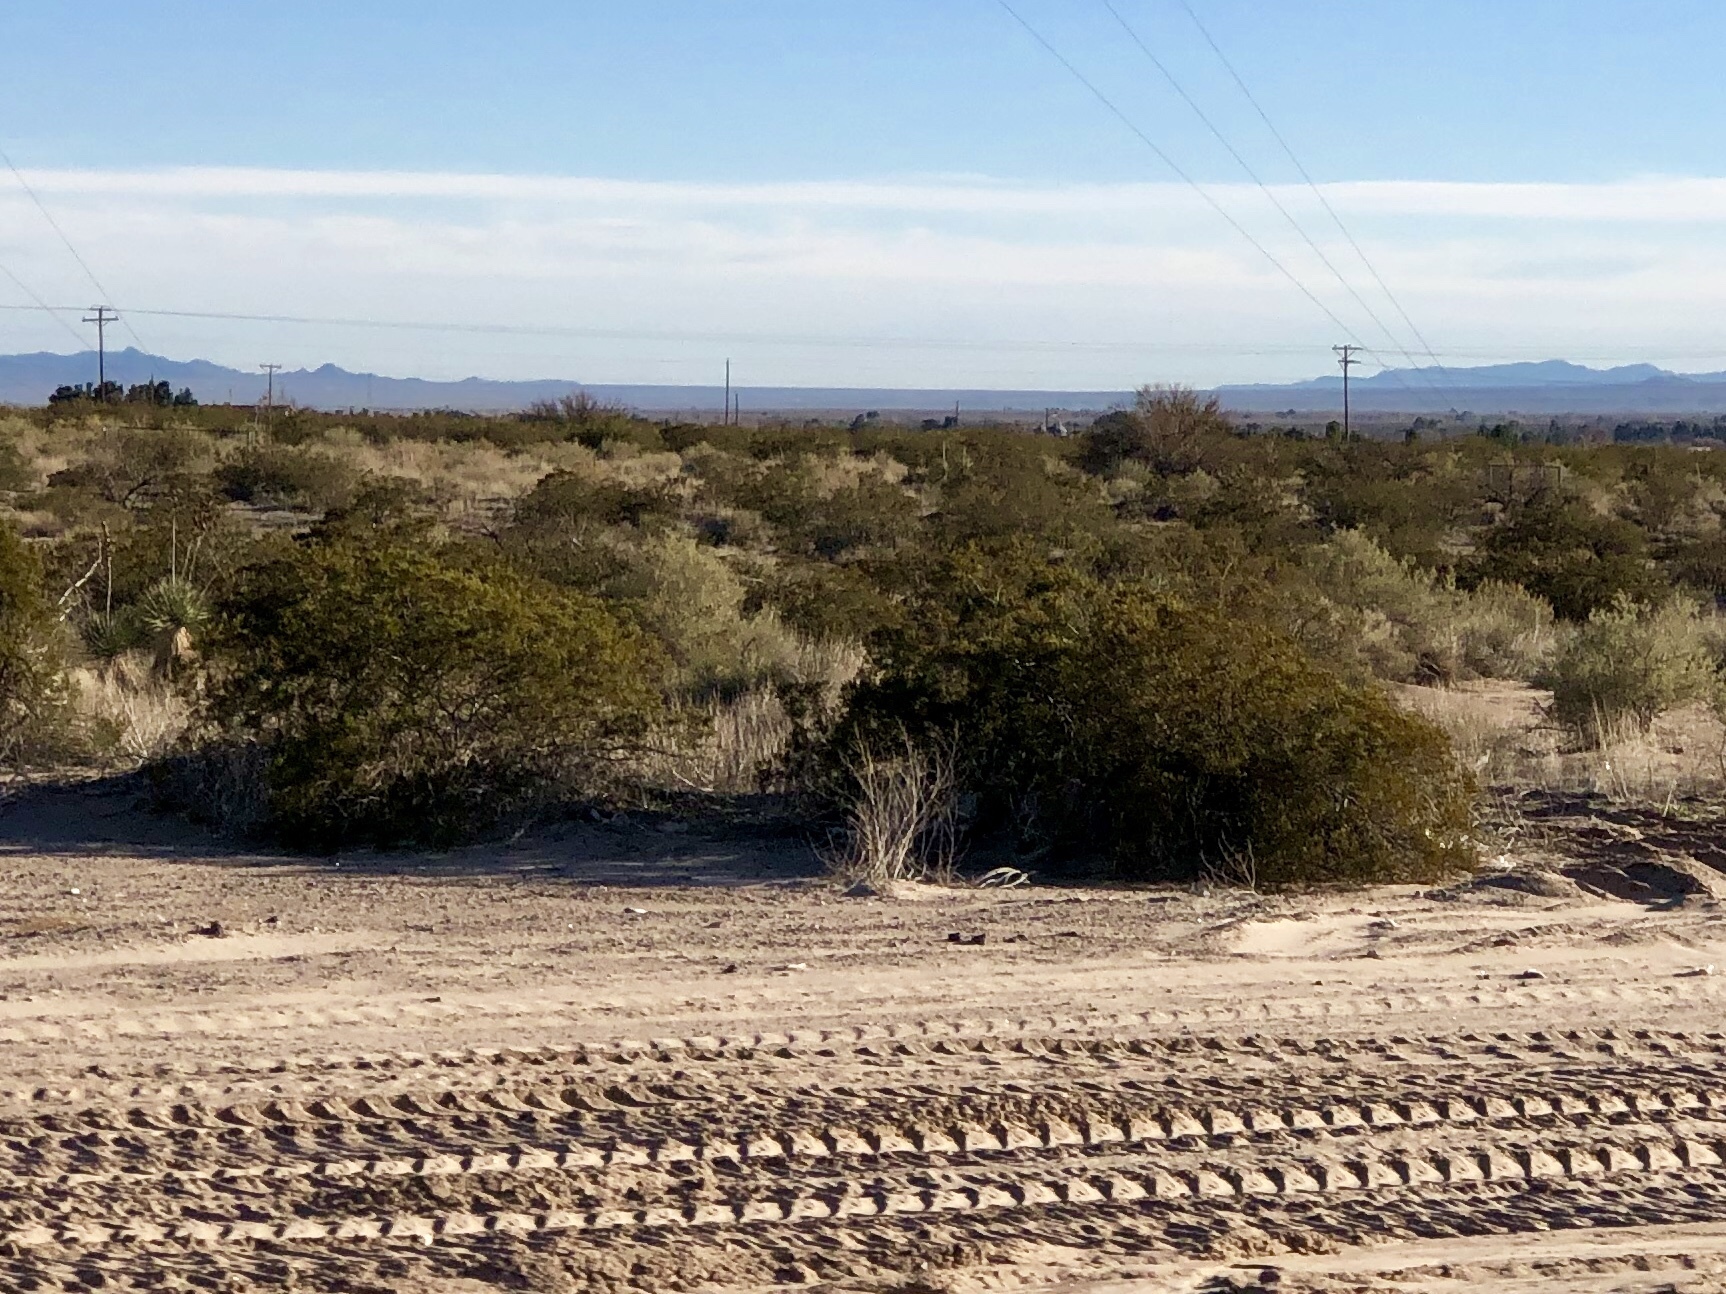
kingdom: Plantae
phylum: Tracheophyta
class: Magnoliopsida
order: Zygophyllales
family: Zygophyllaceae
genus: Larrea
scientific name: Larrea tridentata
